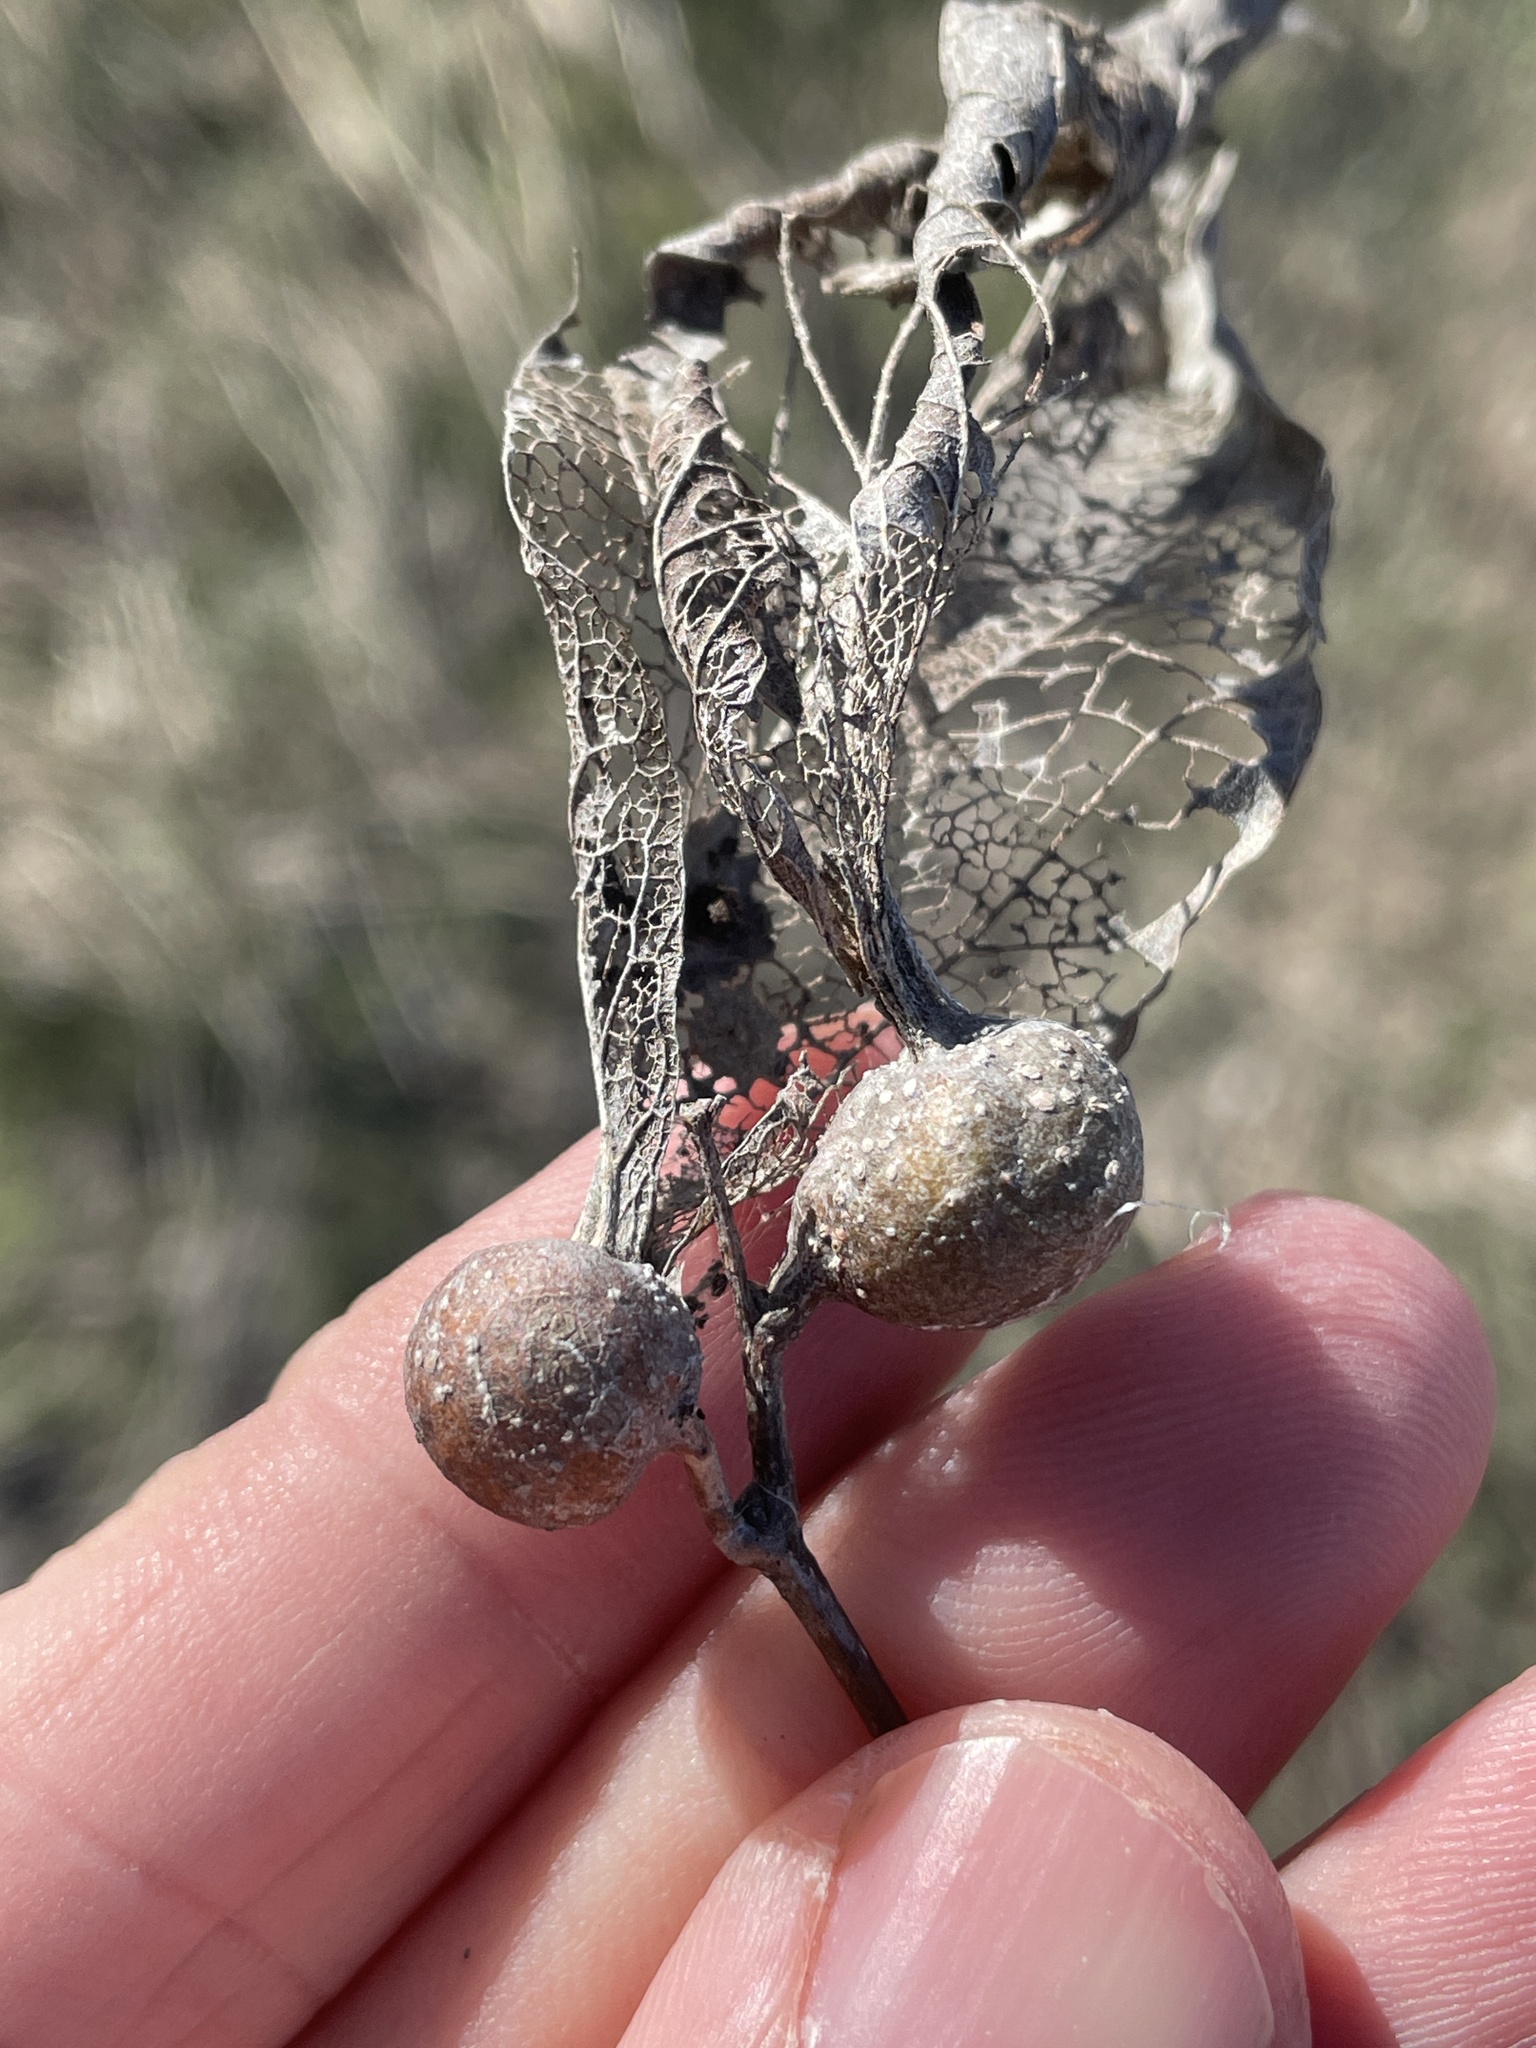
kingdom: Animalia
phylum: Arthropoda
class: Insecta
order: Hemiptera
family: Aphalaridae
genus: Pachypsylla
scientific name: Pachypsylla venusta
